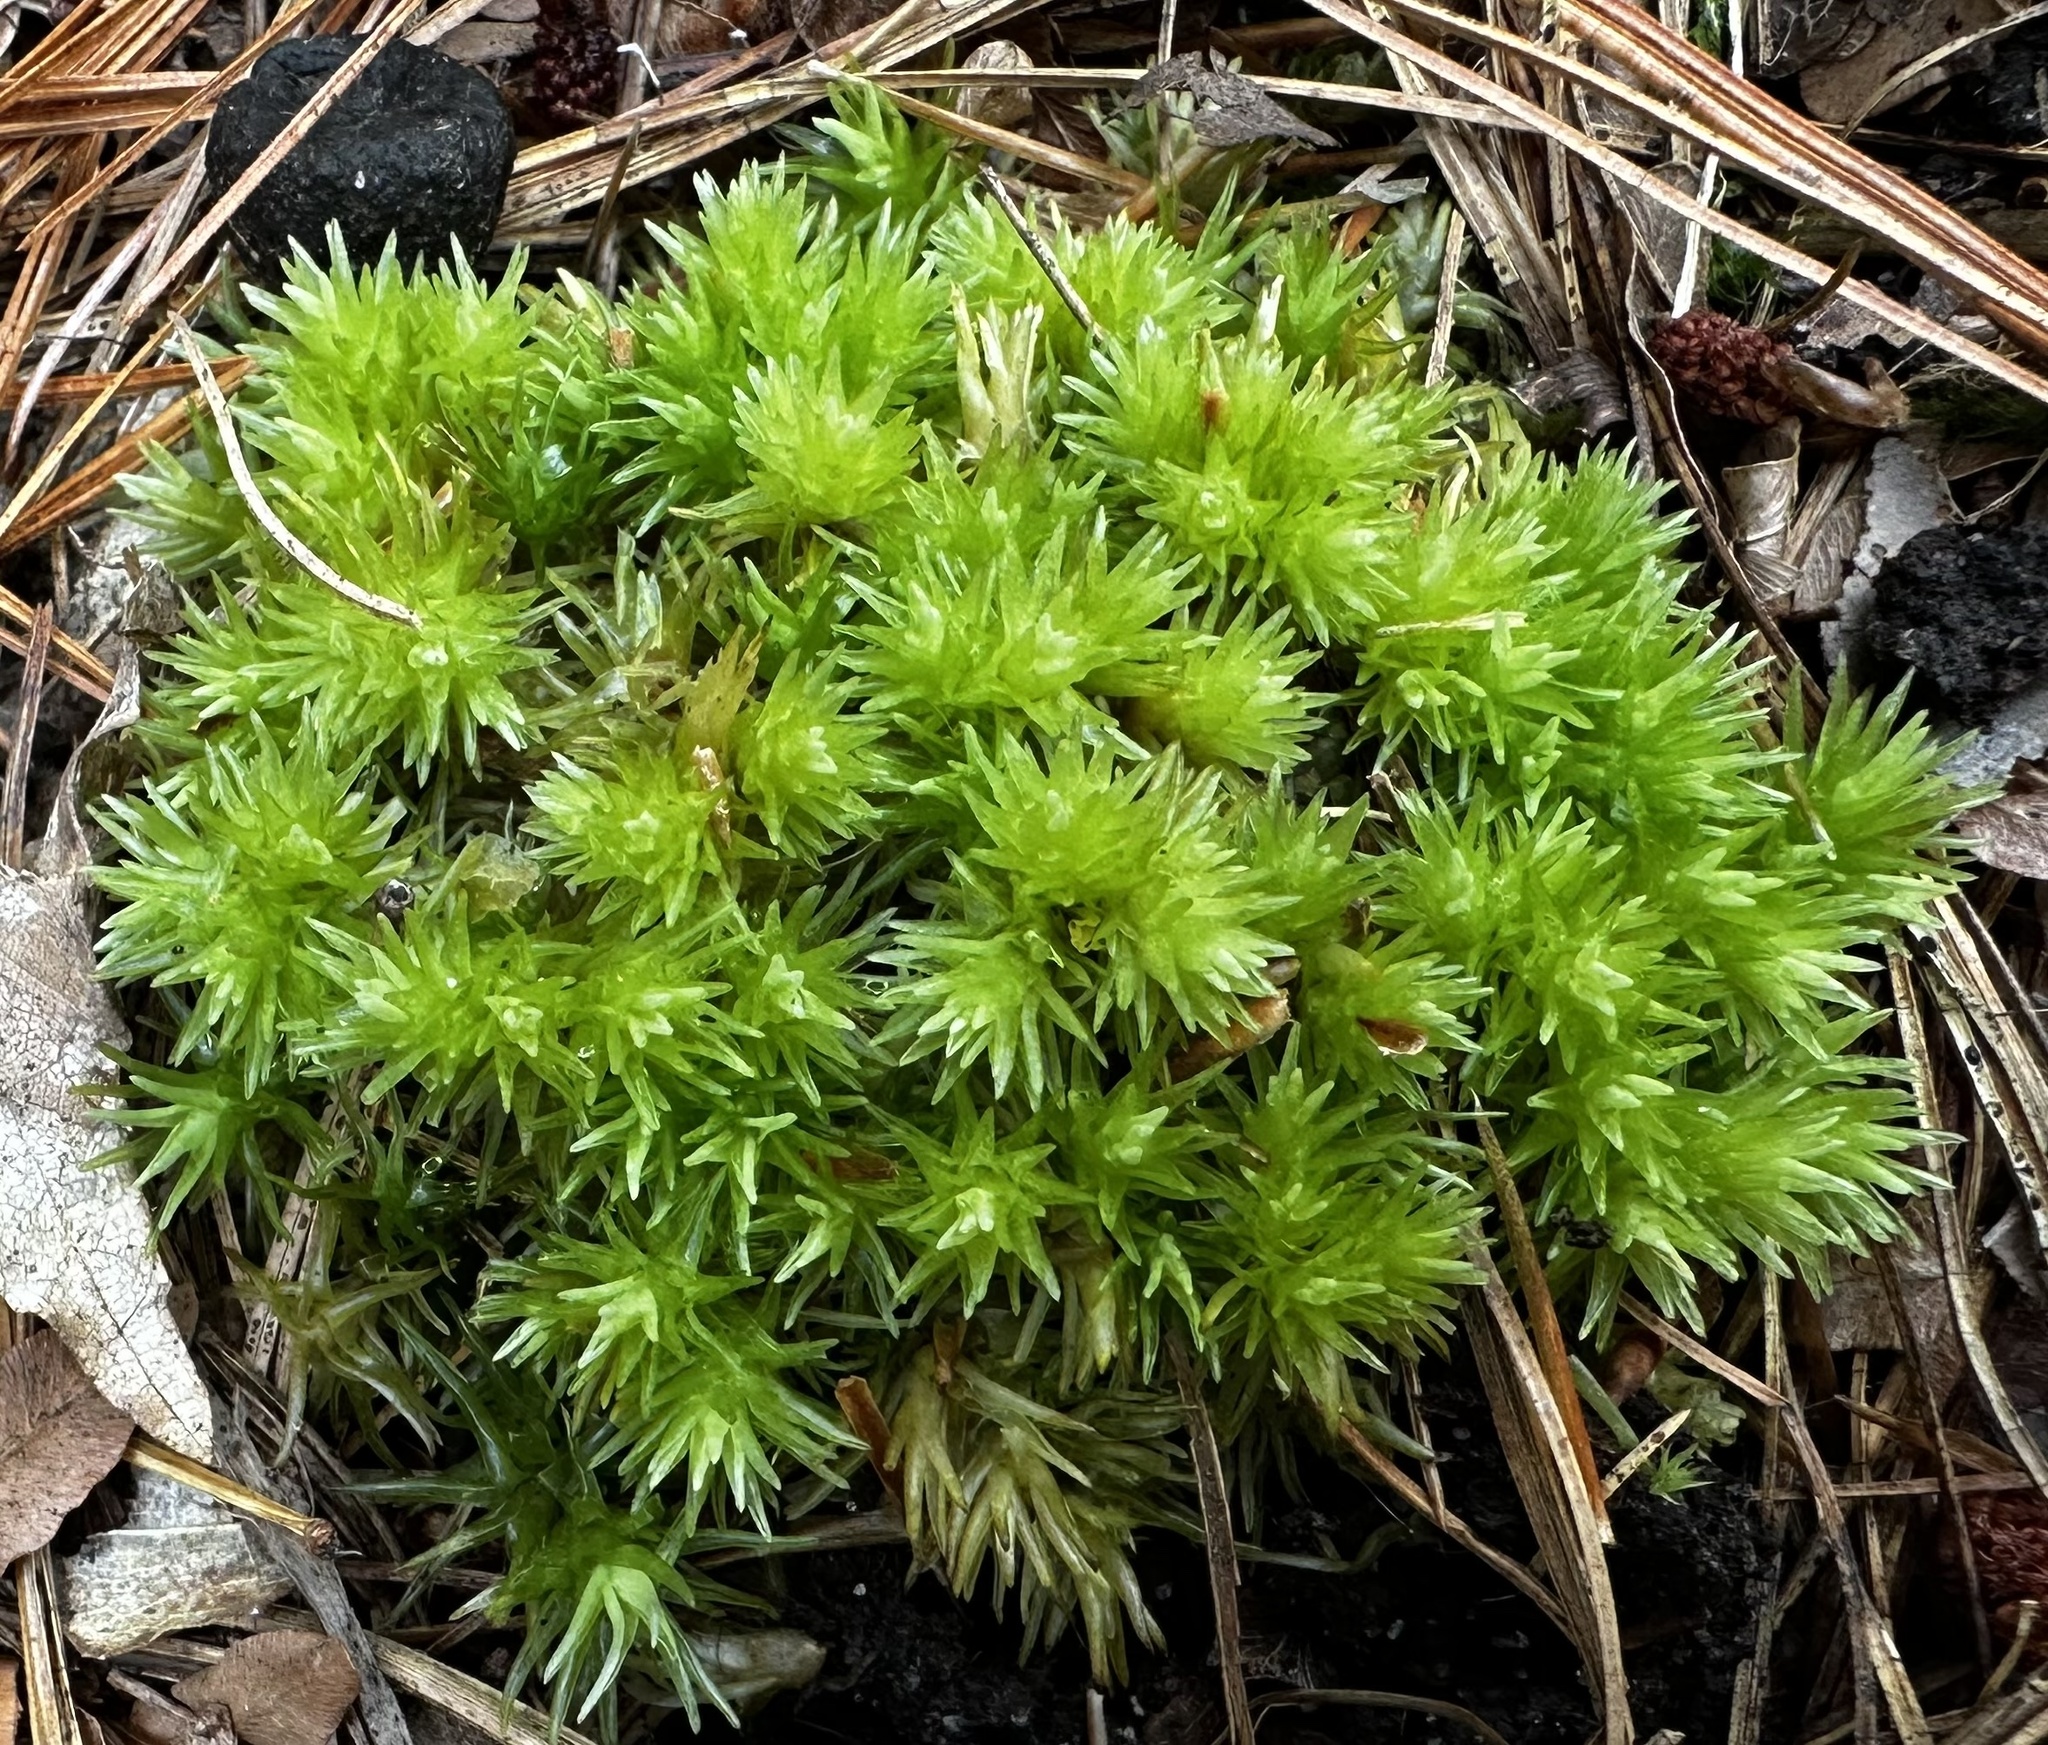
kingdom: Plantae
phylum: Bryophyta
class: Bryopsida
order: Dicranales
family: Leucobryaceae
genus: Leucobryum
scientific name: Leucobryum glaucum
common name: Large white-moss
